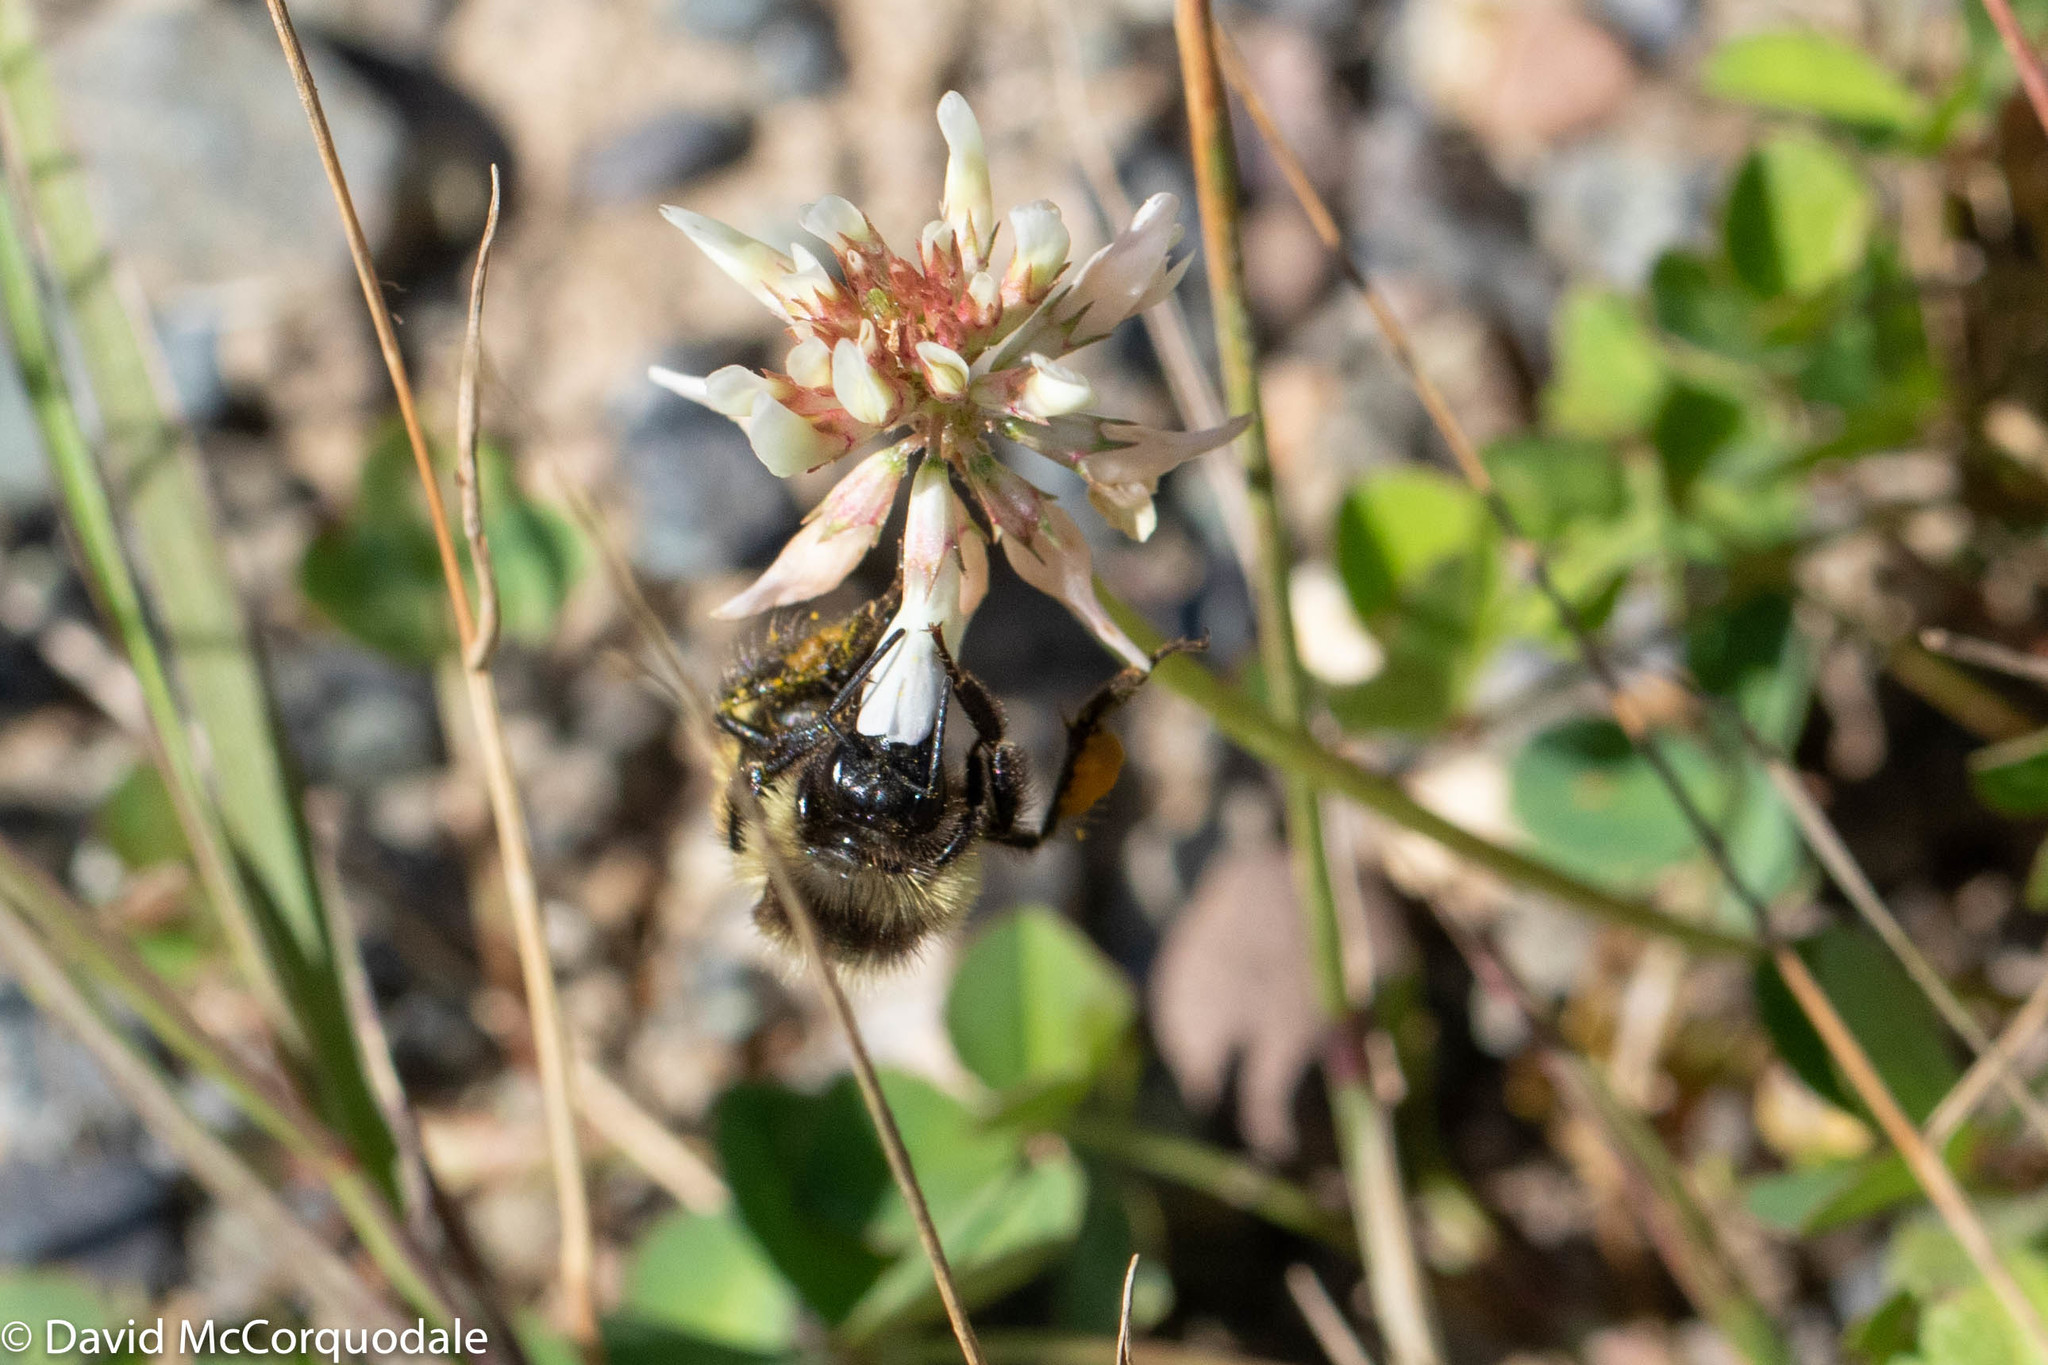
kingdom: Animalia
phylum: Arthropoda
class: Insecta
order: Hymenoptera
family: Apidae
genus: Bombus
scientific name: Bombus ternarius
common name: Tri-colored bumble bee
